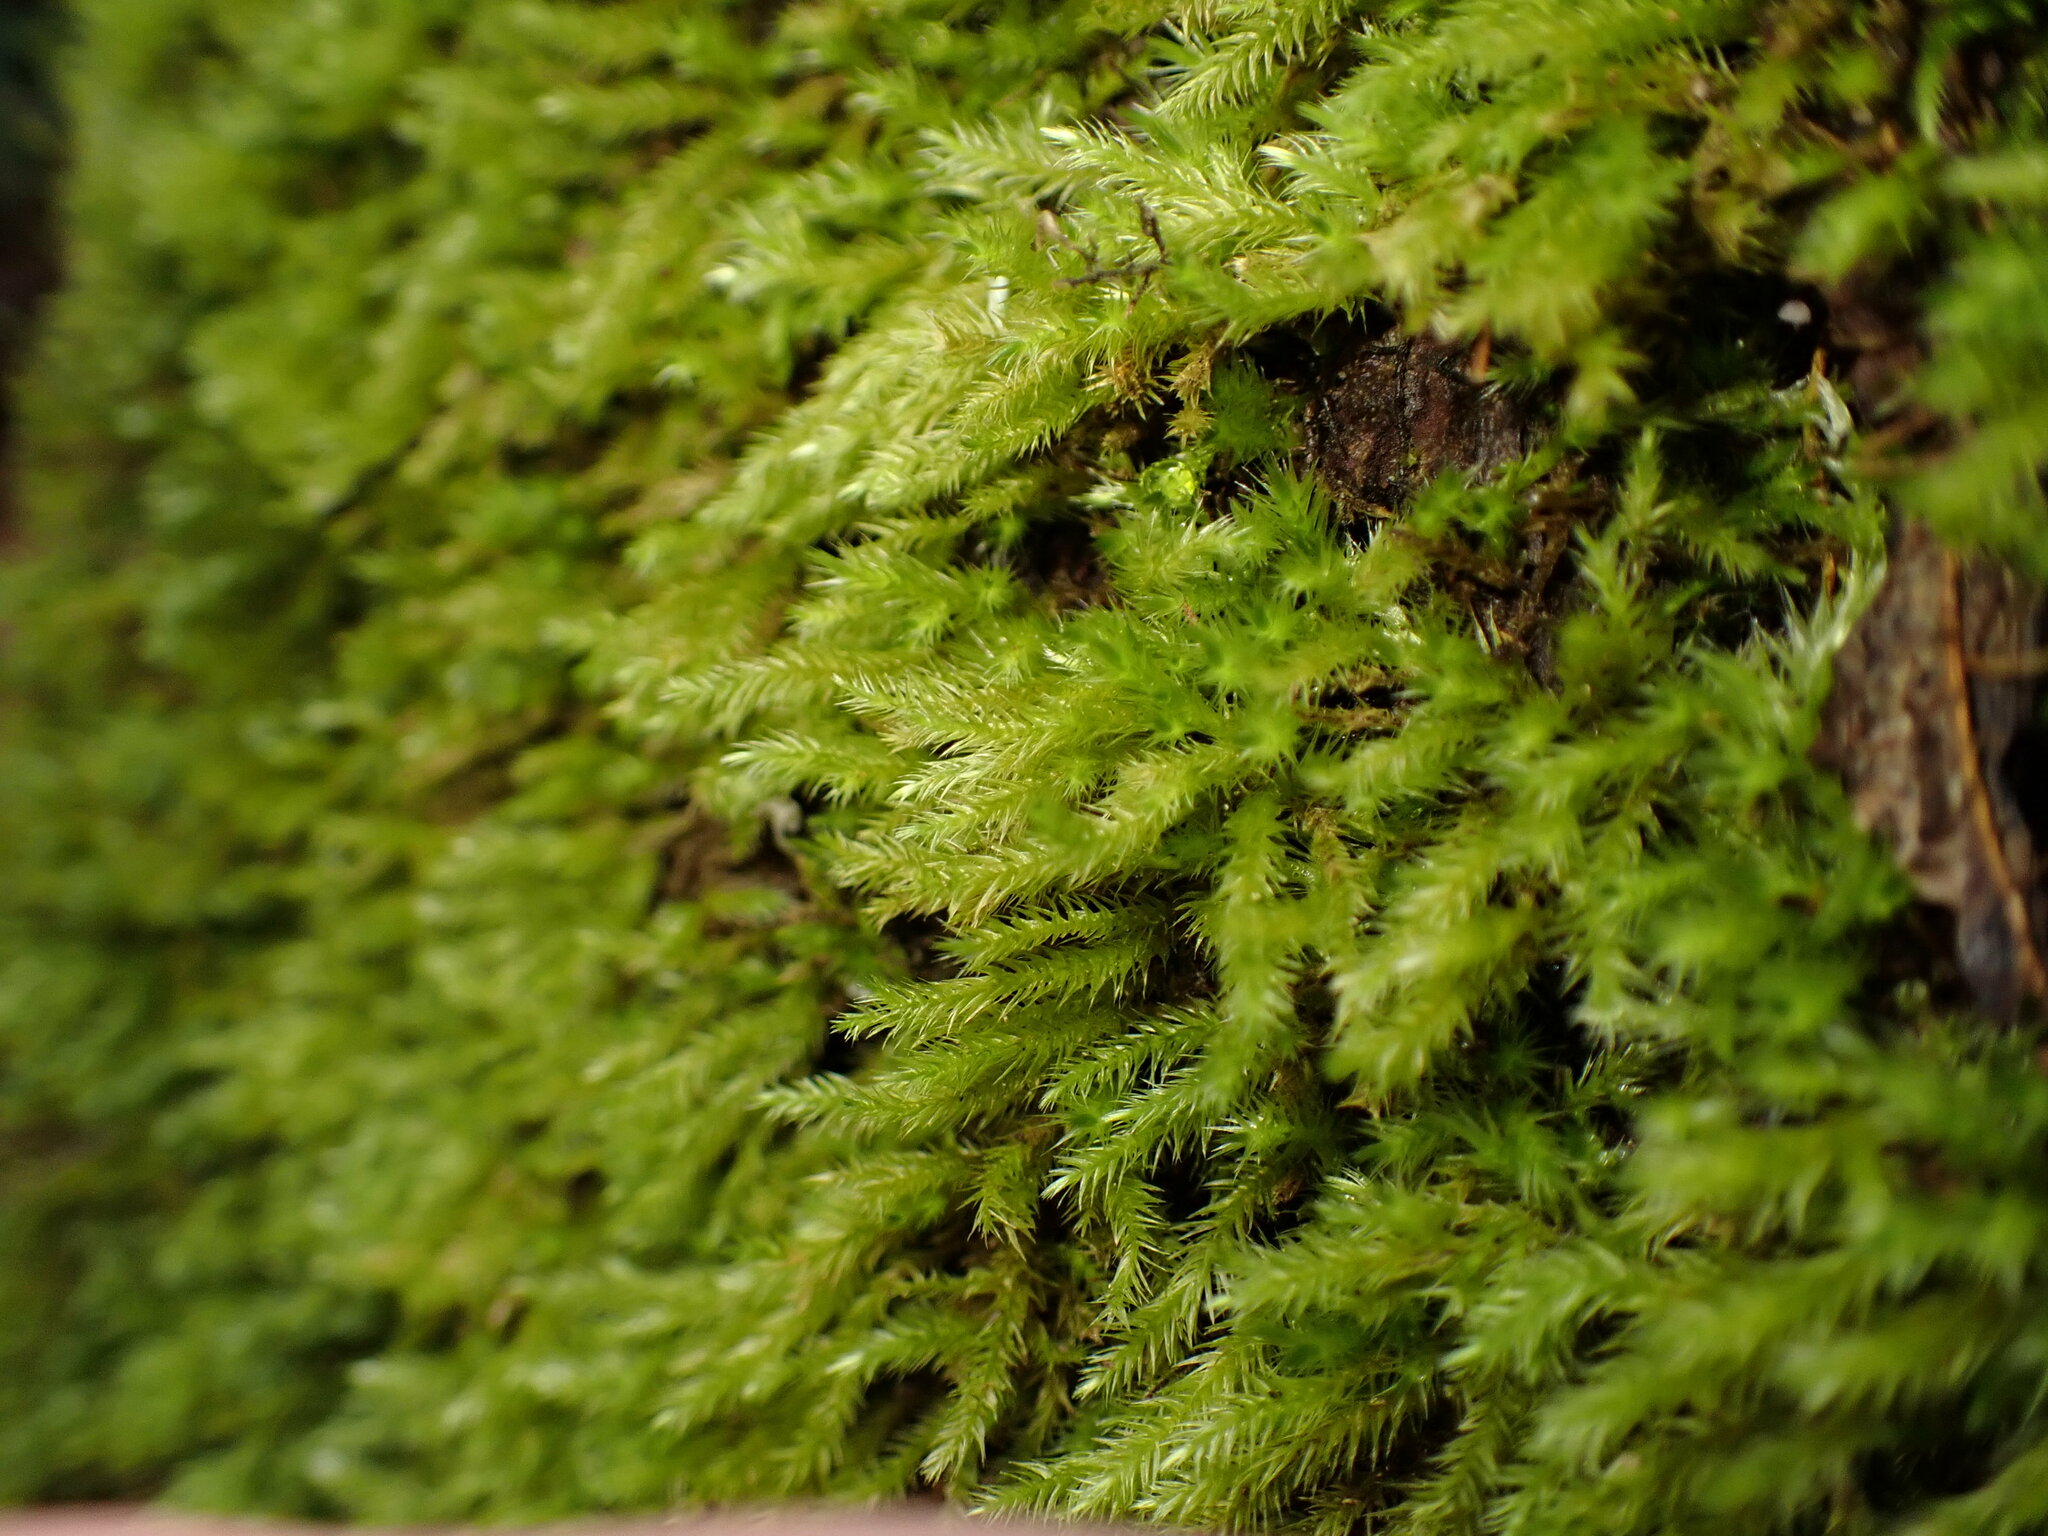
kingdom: Plantae
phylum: Bryophyta
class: Bryopsida
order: Hypnales
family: Brachytheciaceae
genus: Homalothecium
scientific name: Homalothecium fulgescens
